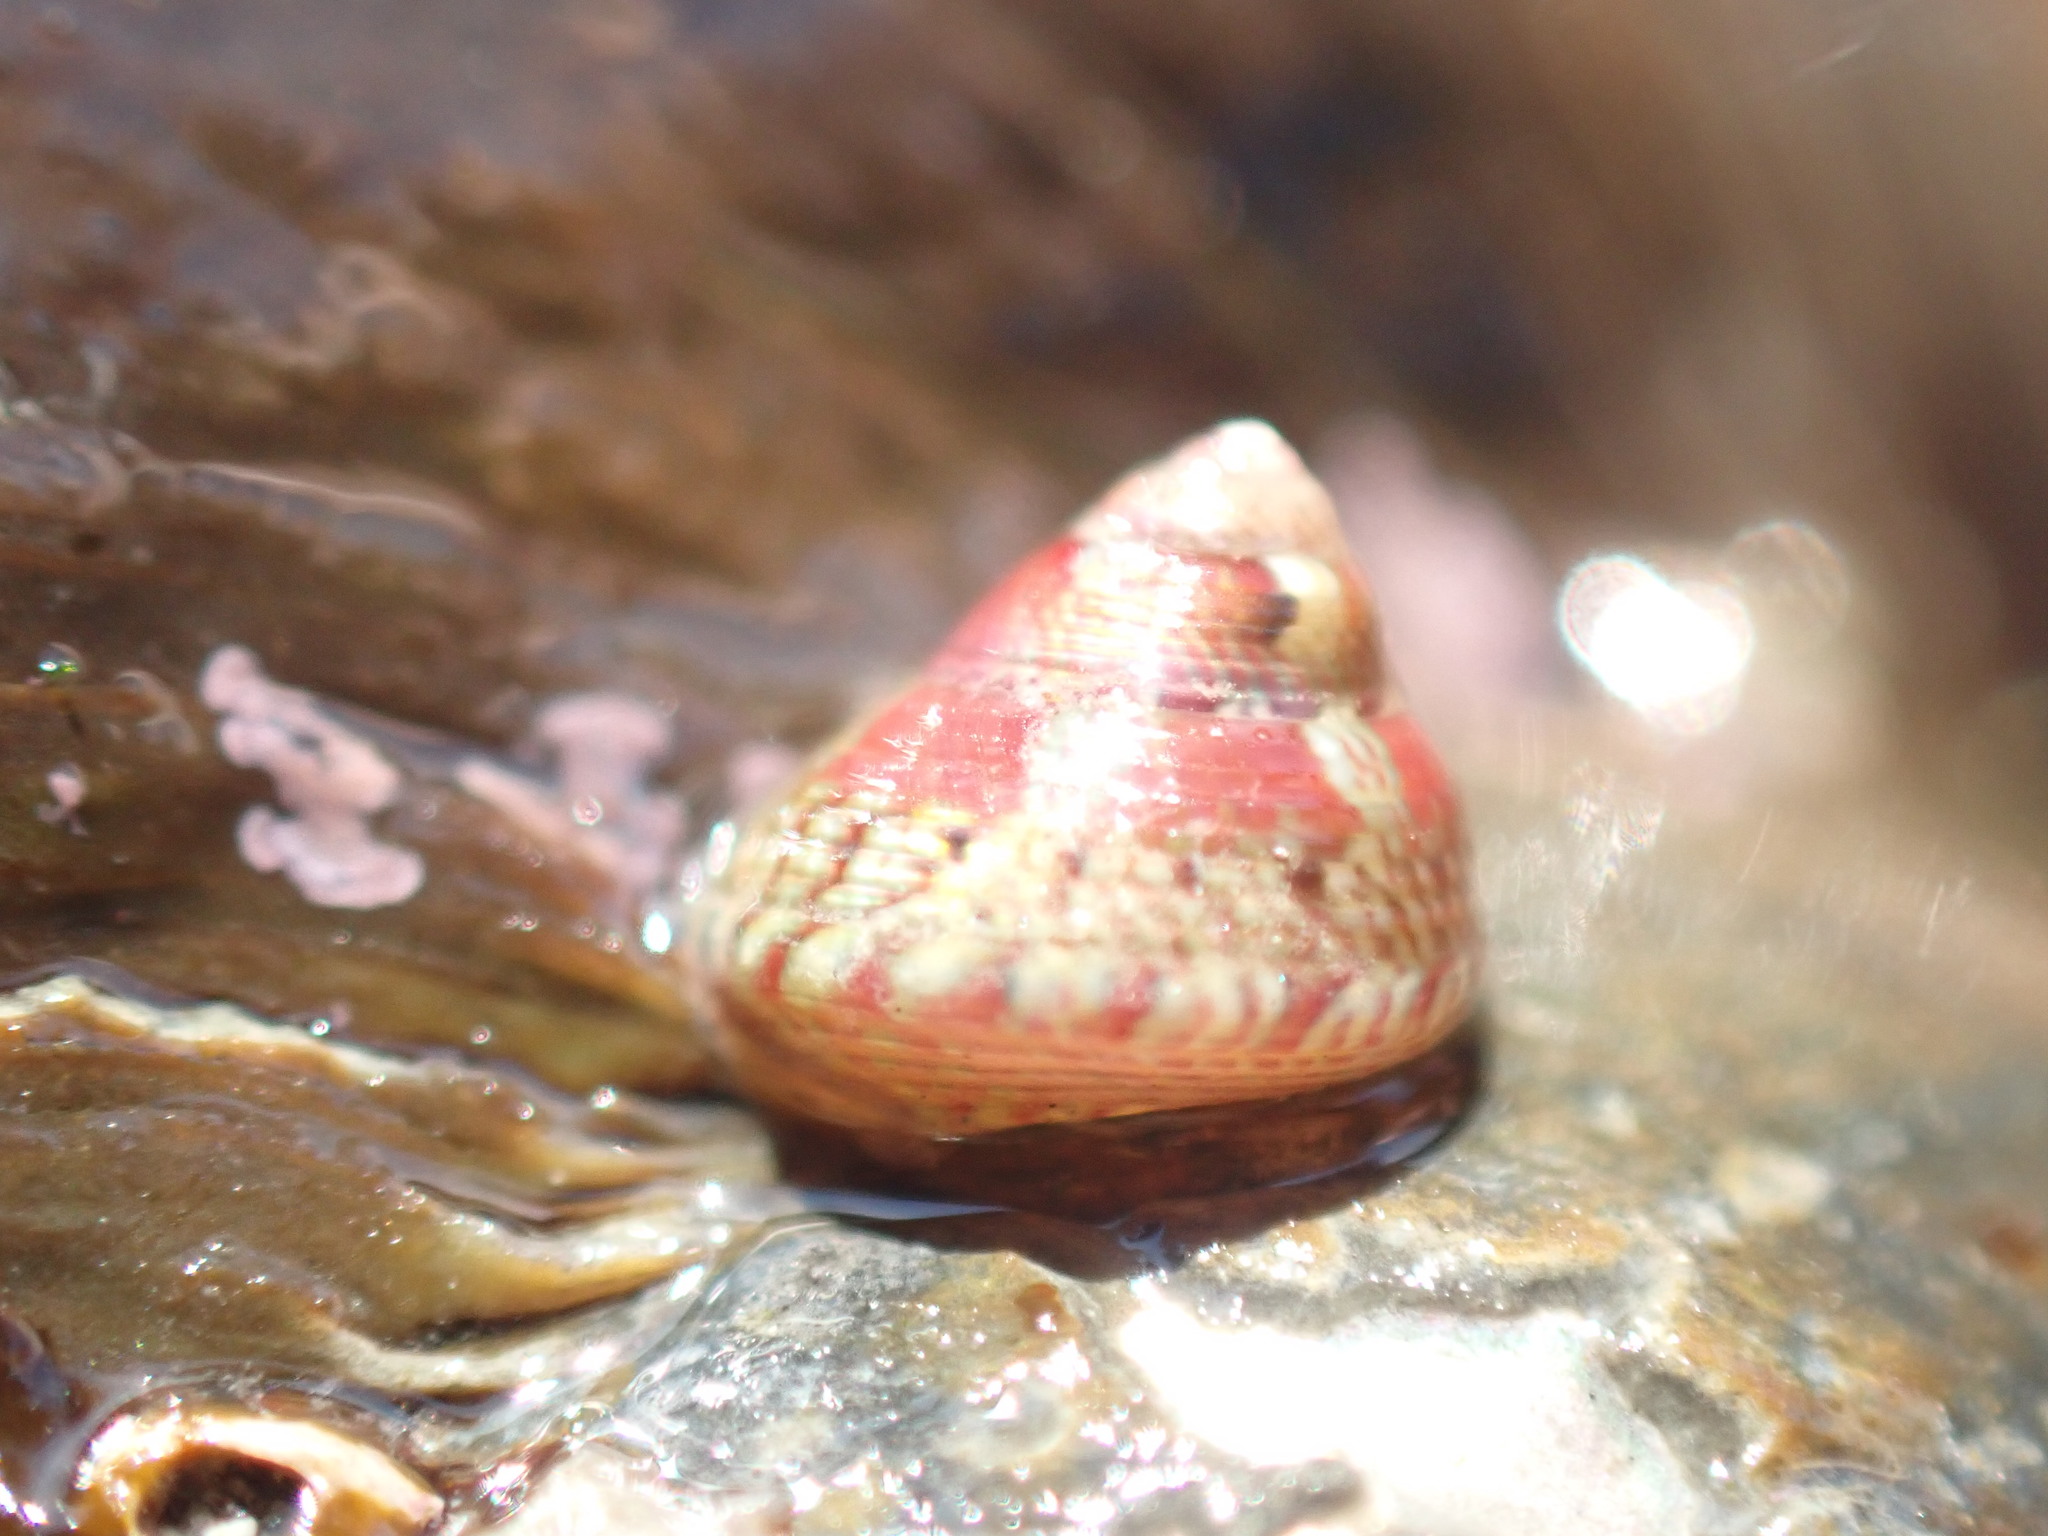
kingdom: Animalia
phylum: Mollusca
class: Gastropoda
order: Trochida
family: Trochidae
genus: Micrelenchus
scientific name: Micrelenchus sanguineus
